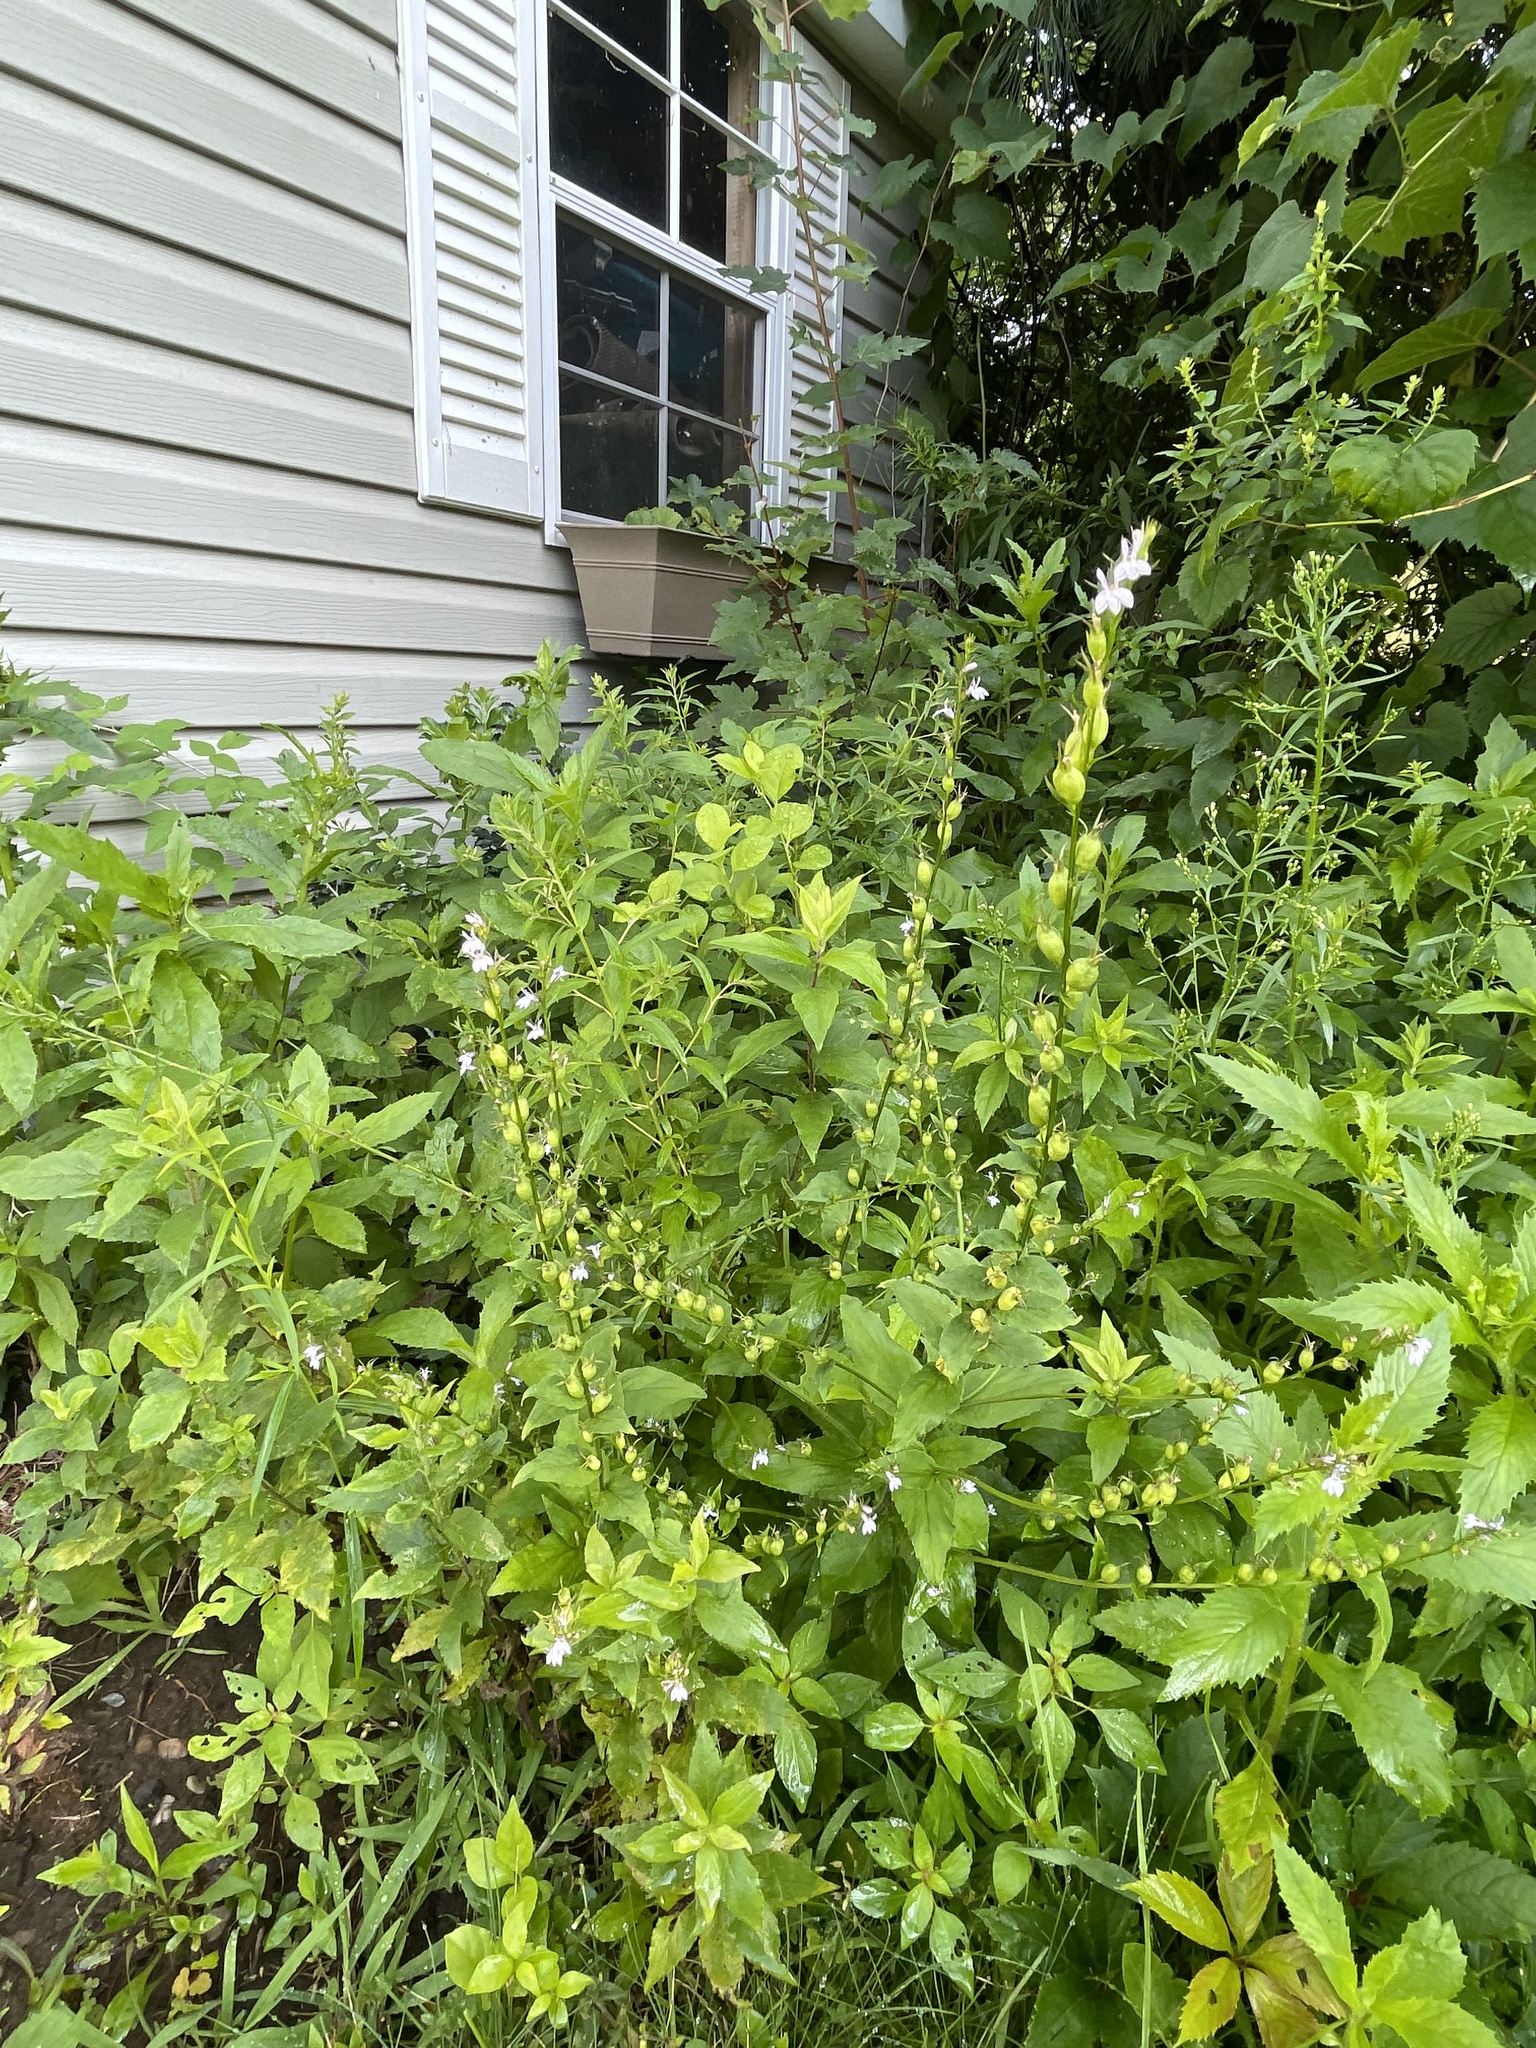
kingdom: Plantae
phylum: Tracheophyta
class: Magnoliopsida
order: Asterales
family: Campanulaceae
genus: Lobelia
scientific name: Lobelia inflata
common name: Indian tobacco
